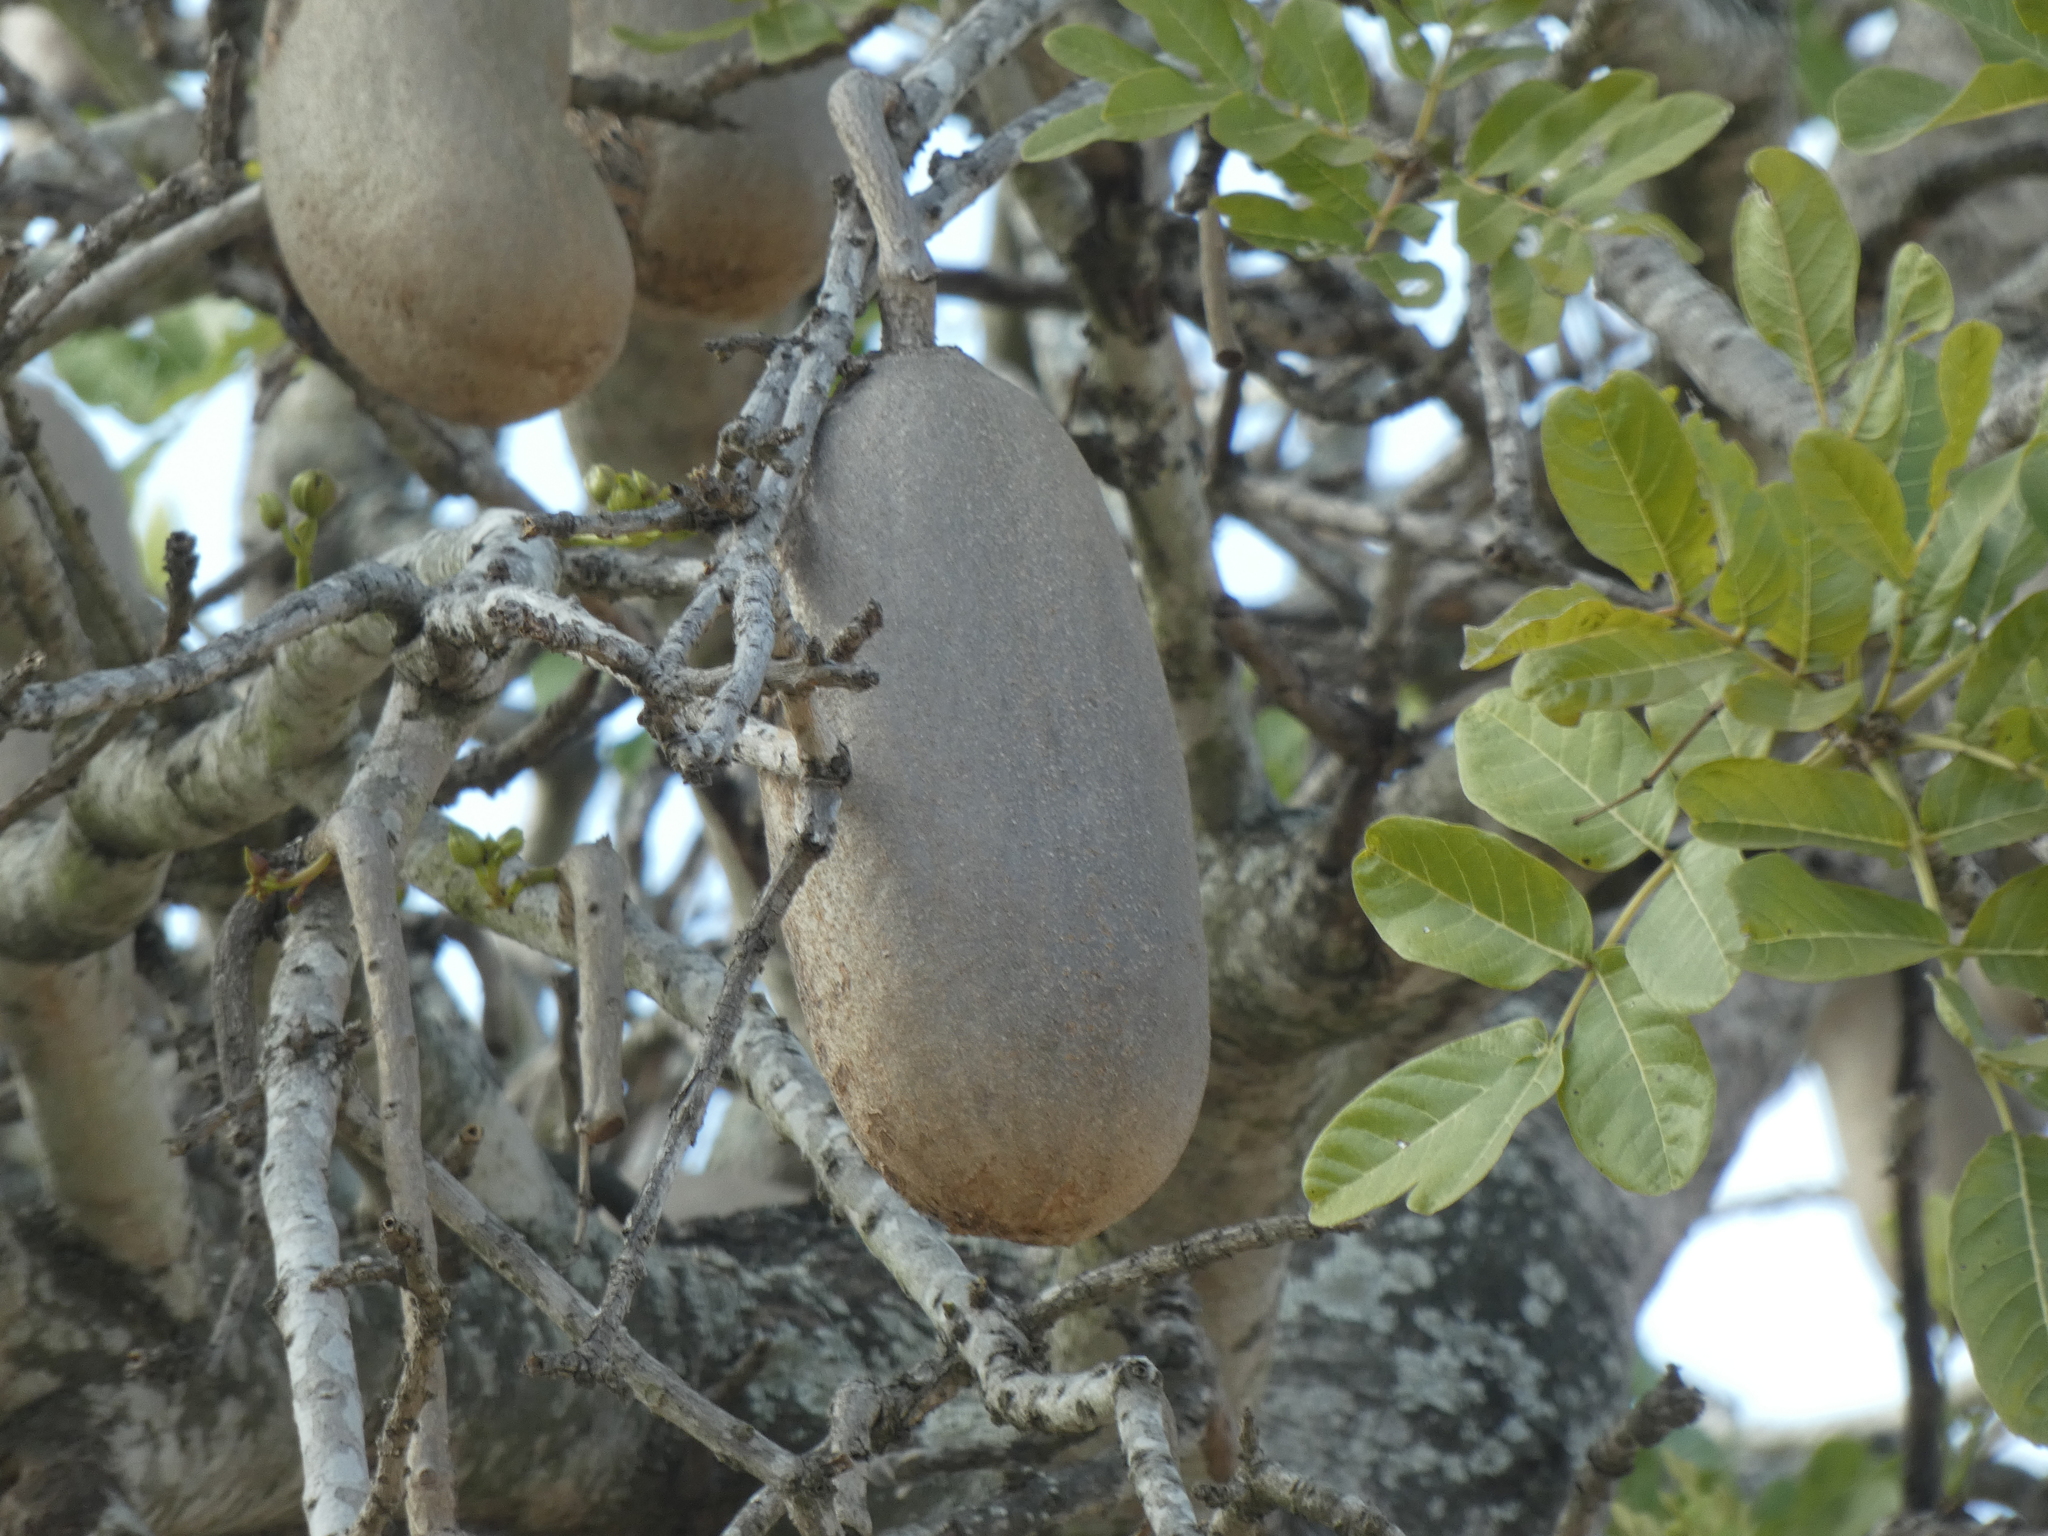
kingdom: Plantae
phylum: Tracheophyta
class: Magnoliopsida
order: Lamiales
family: Bignoniaceae
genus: Kigelia
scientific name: Kigelia africana
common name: Sausage tree
